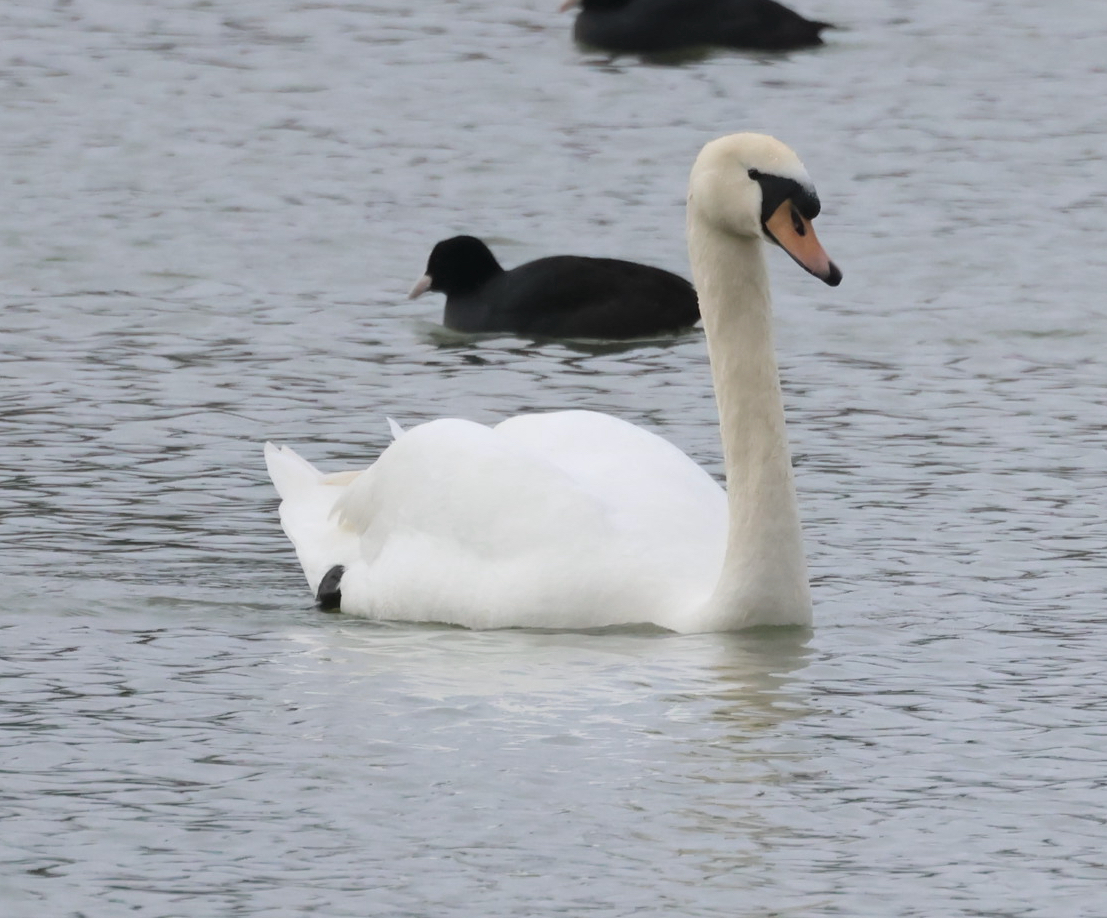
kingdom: Animalia
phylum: Chordata
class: Aves
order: Anseriformes
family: Anatidae
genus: Cygnus
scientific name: Cygnus olor
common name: Mute swan
